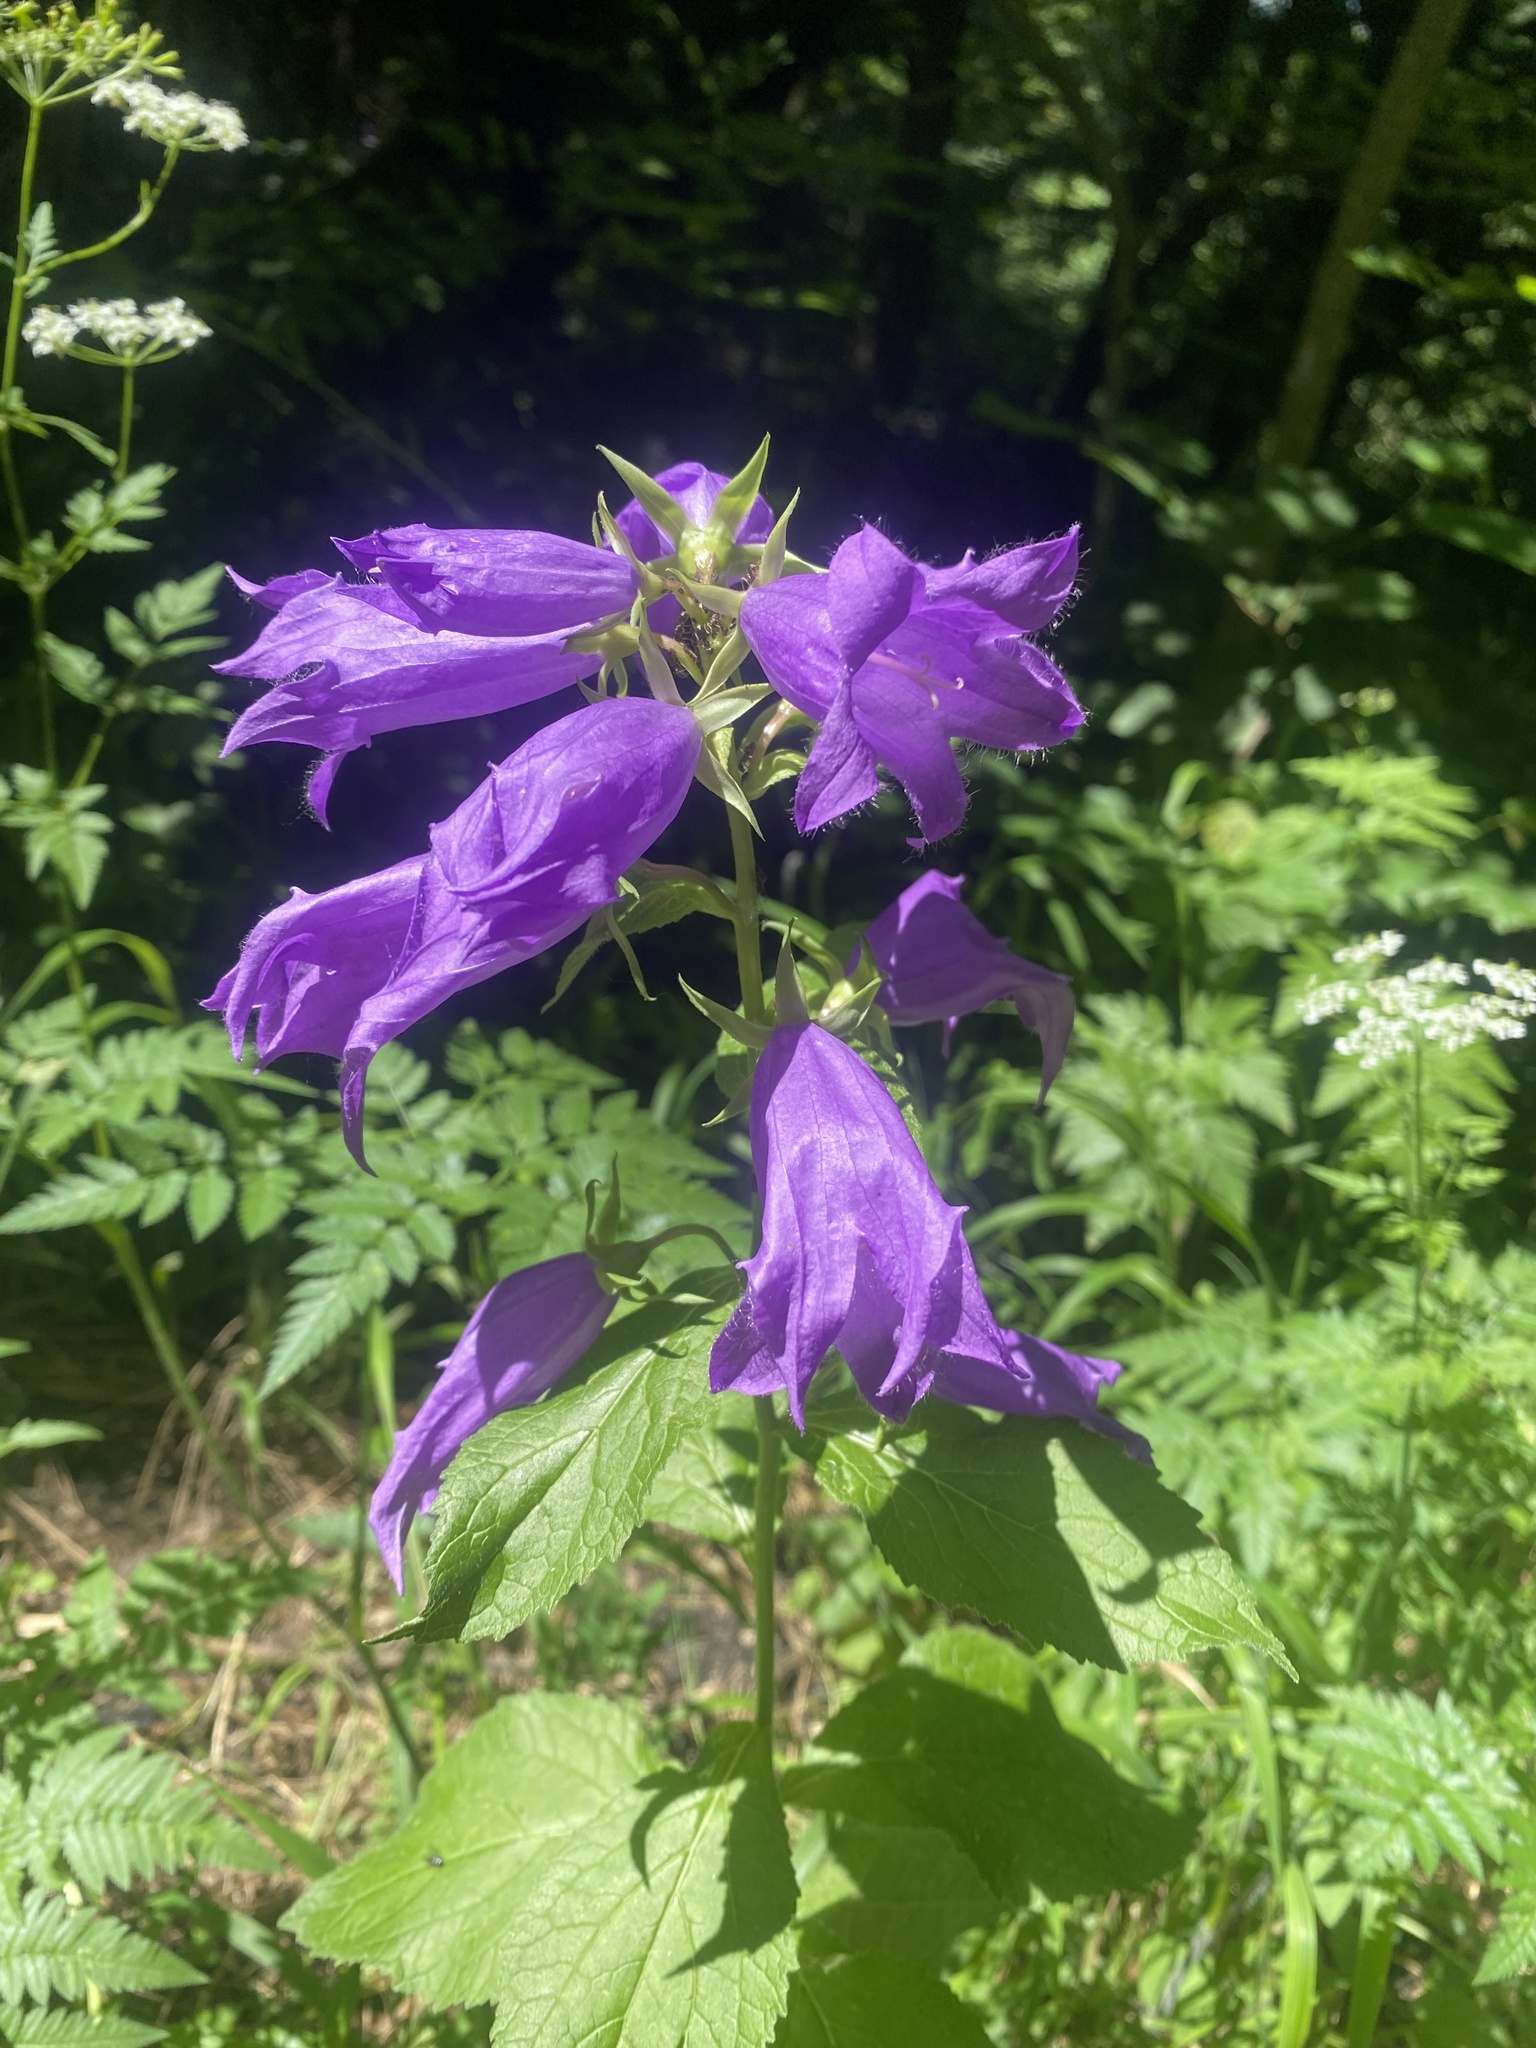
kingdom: Plantae
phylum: Tracheophyta
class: Magnoliopsida
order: Asterales
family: Campanulaceae
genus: Campanula
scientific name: Campanula latifolia
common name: Giant bellflower
